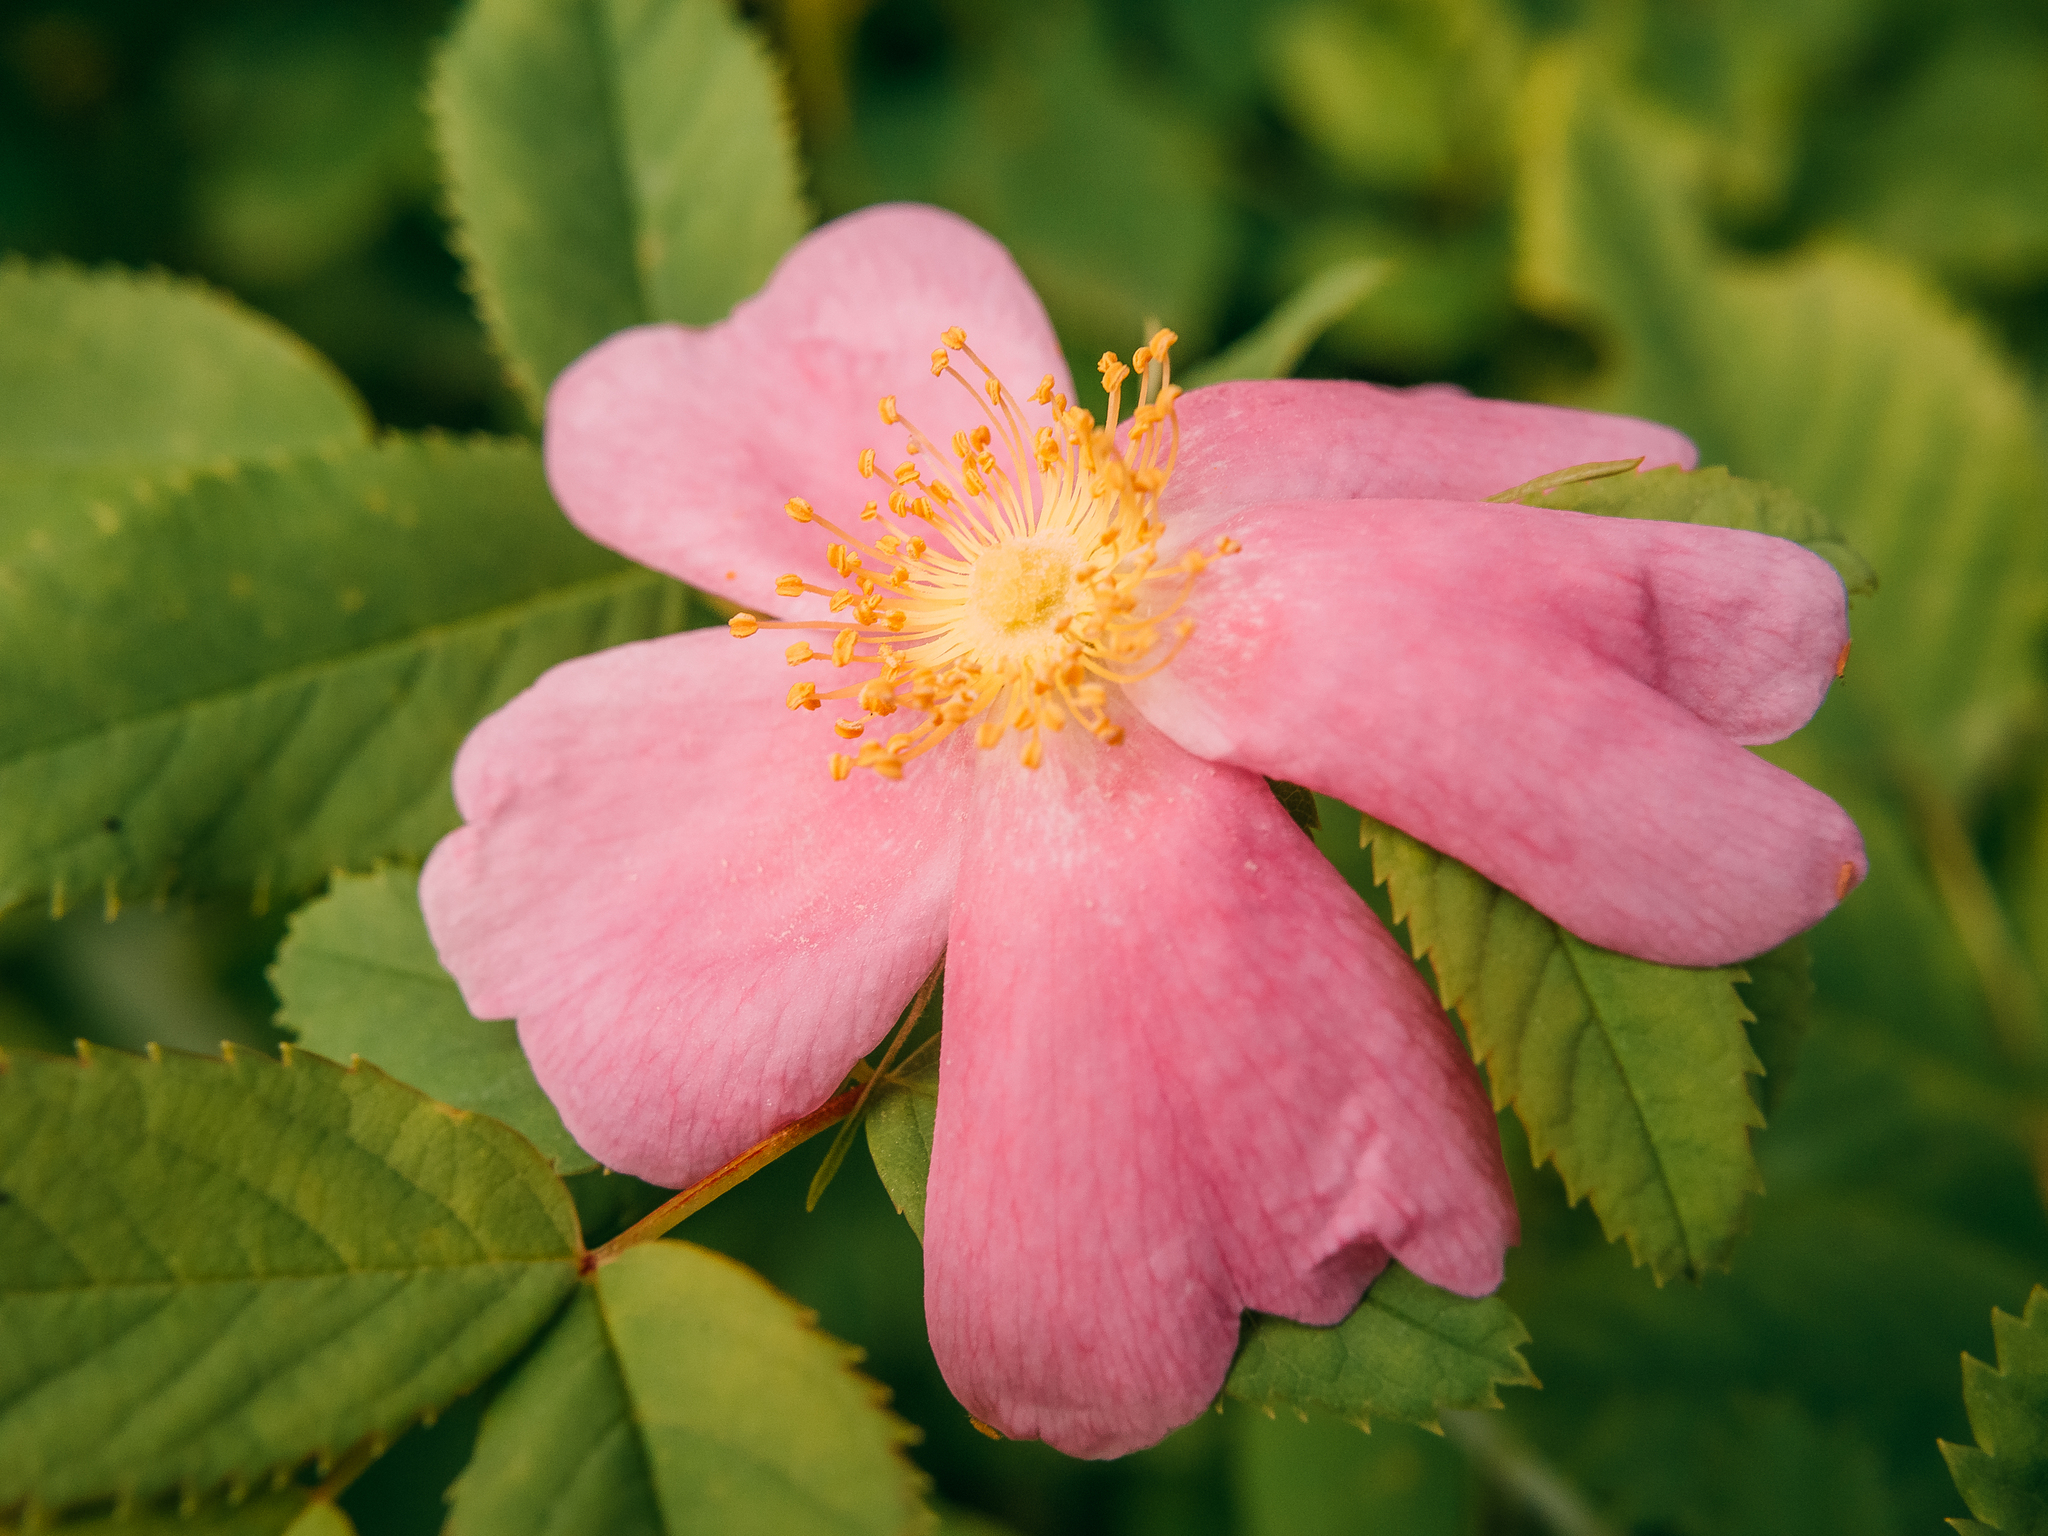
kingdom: Plantae
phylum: Tracheophyta
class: Magnoliopsida
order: Rosales
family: Rosaceae
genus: Rosa
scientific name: Rosa
